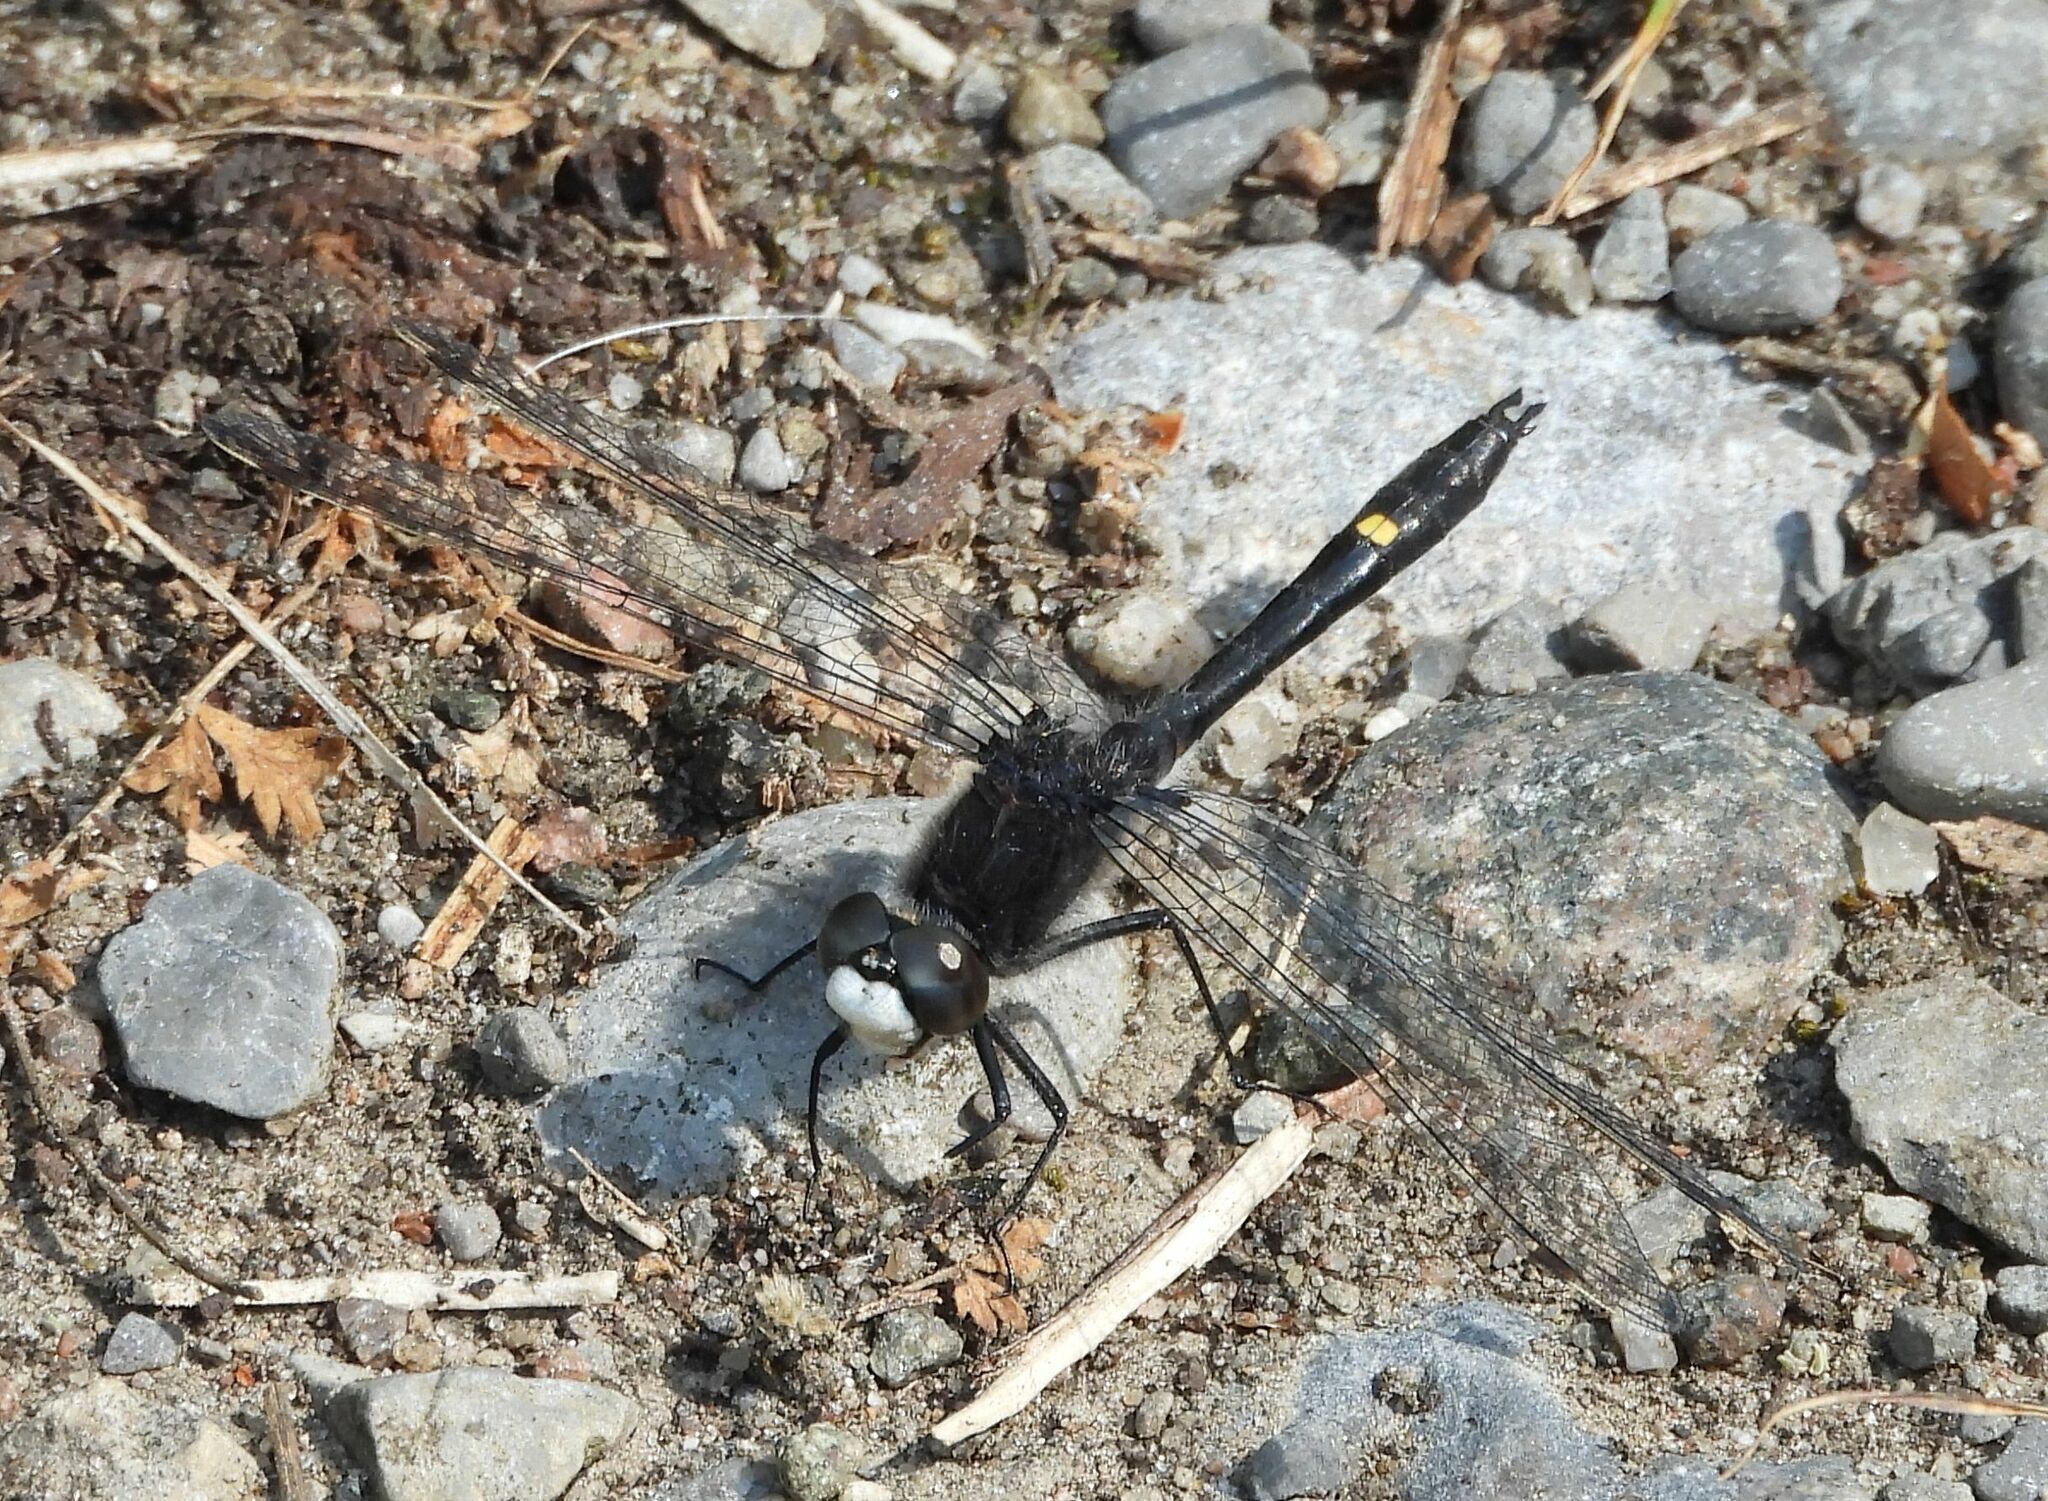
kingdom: Animalia
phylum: Arthropoda
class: Insecta
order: Odonata
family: Libellulidae
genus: Leucorrhinia
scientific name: Leucorrhinia intacta
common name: Dot-tailed whiteface
